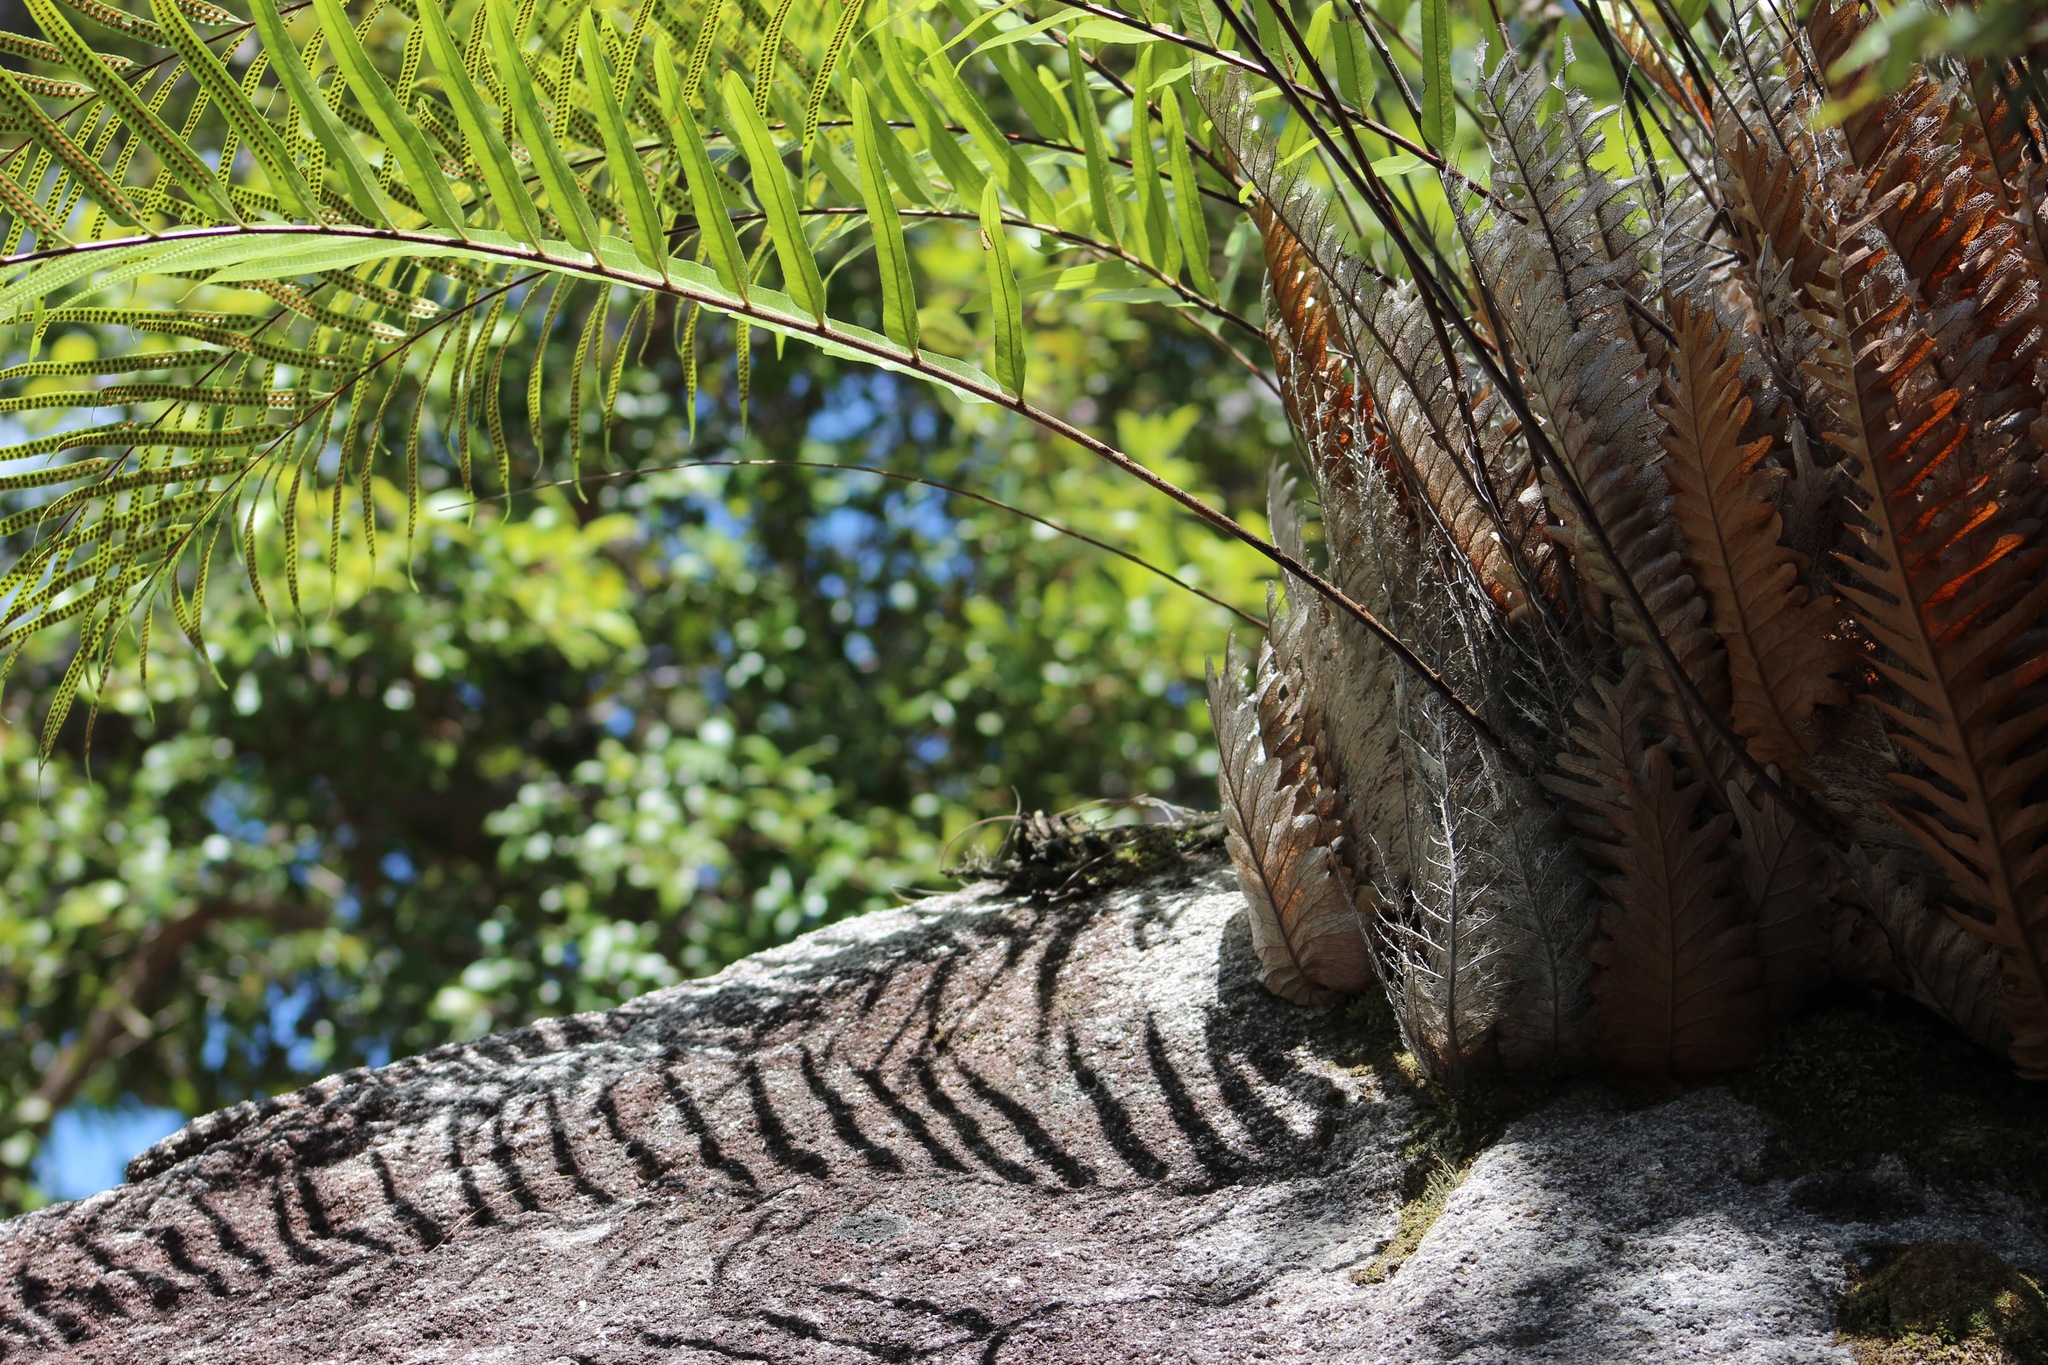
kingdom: Plantae
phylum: Tracheophyta
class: Polypodiopsida
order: Polypodiales
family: Polypodiaceae
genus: Drynaria
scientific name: Drynaria rigidula
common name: Basket fern
